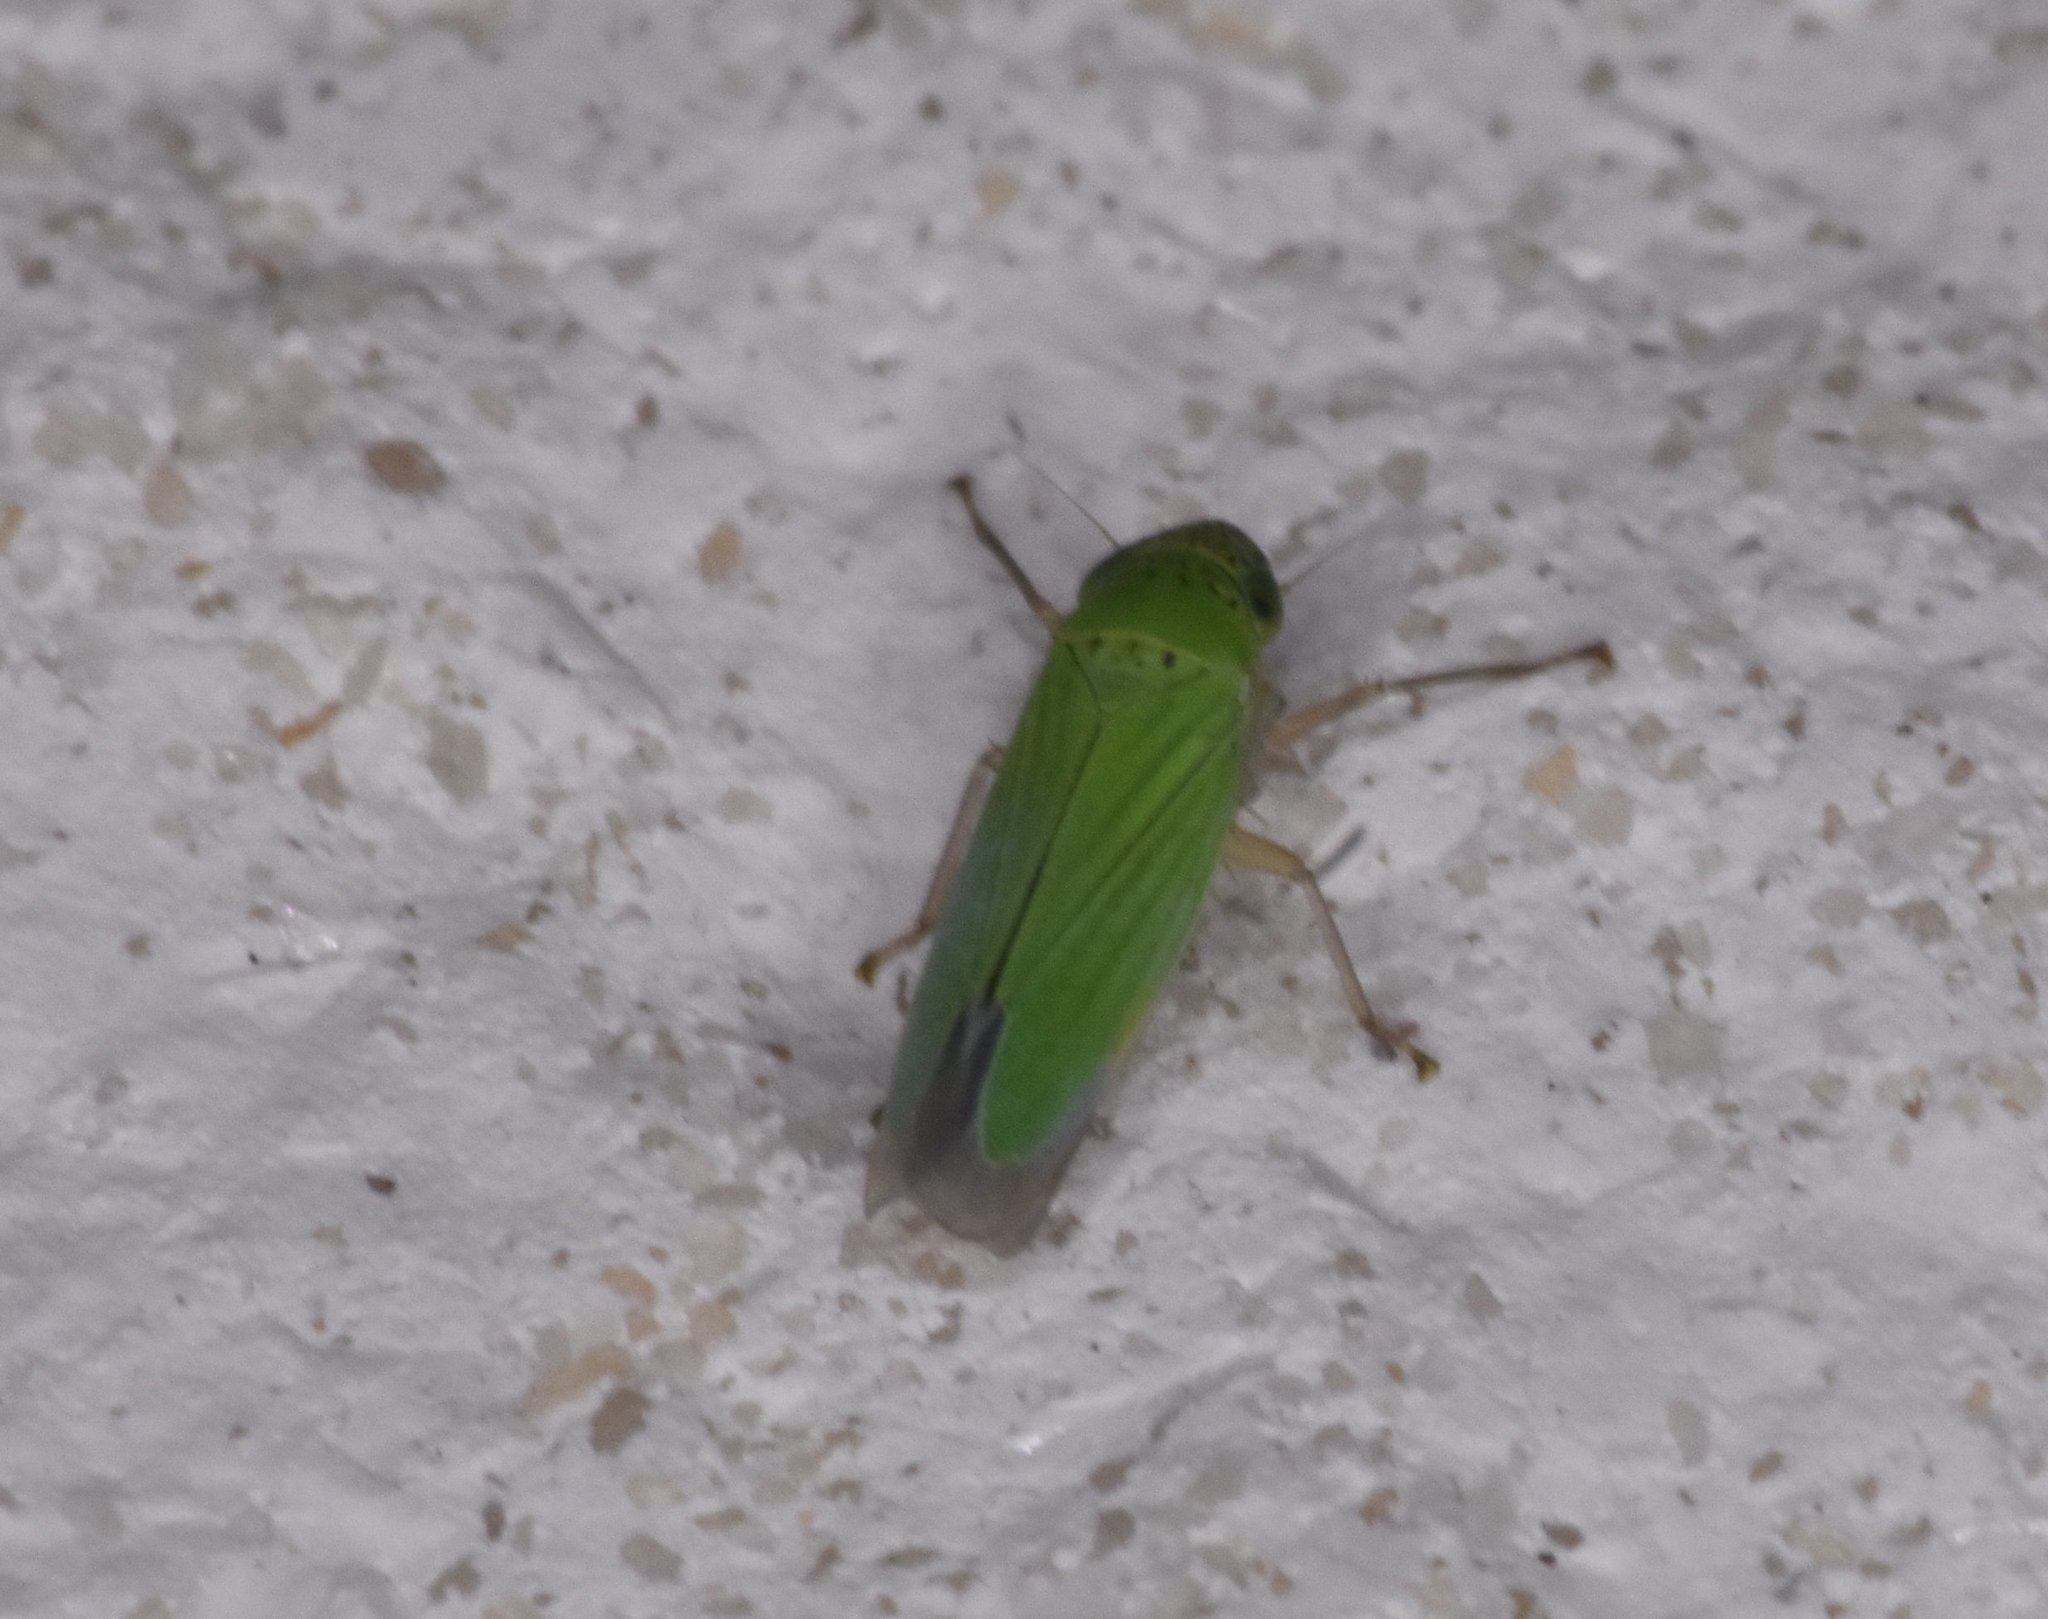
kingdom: Animalia
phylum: Arthropoda
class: Insecta
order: Hemiptera
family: Cicadellidae
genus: Hortensia
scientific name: Hortensia similis
